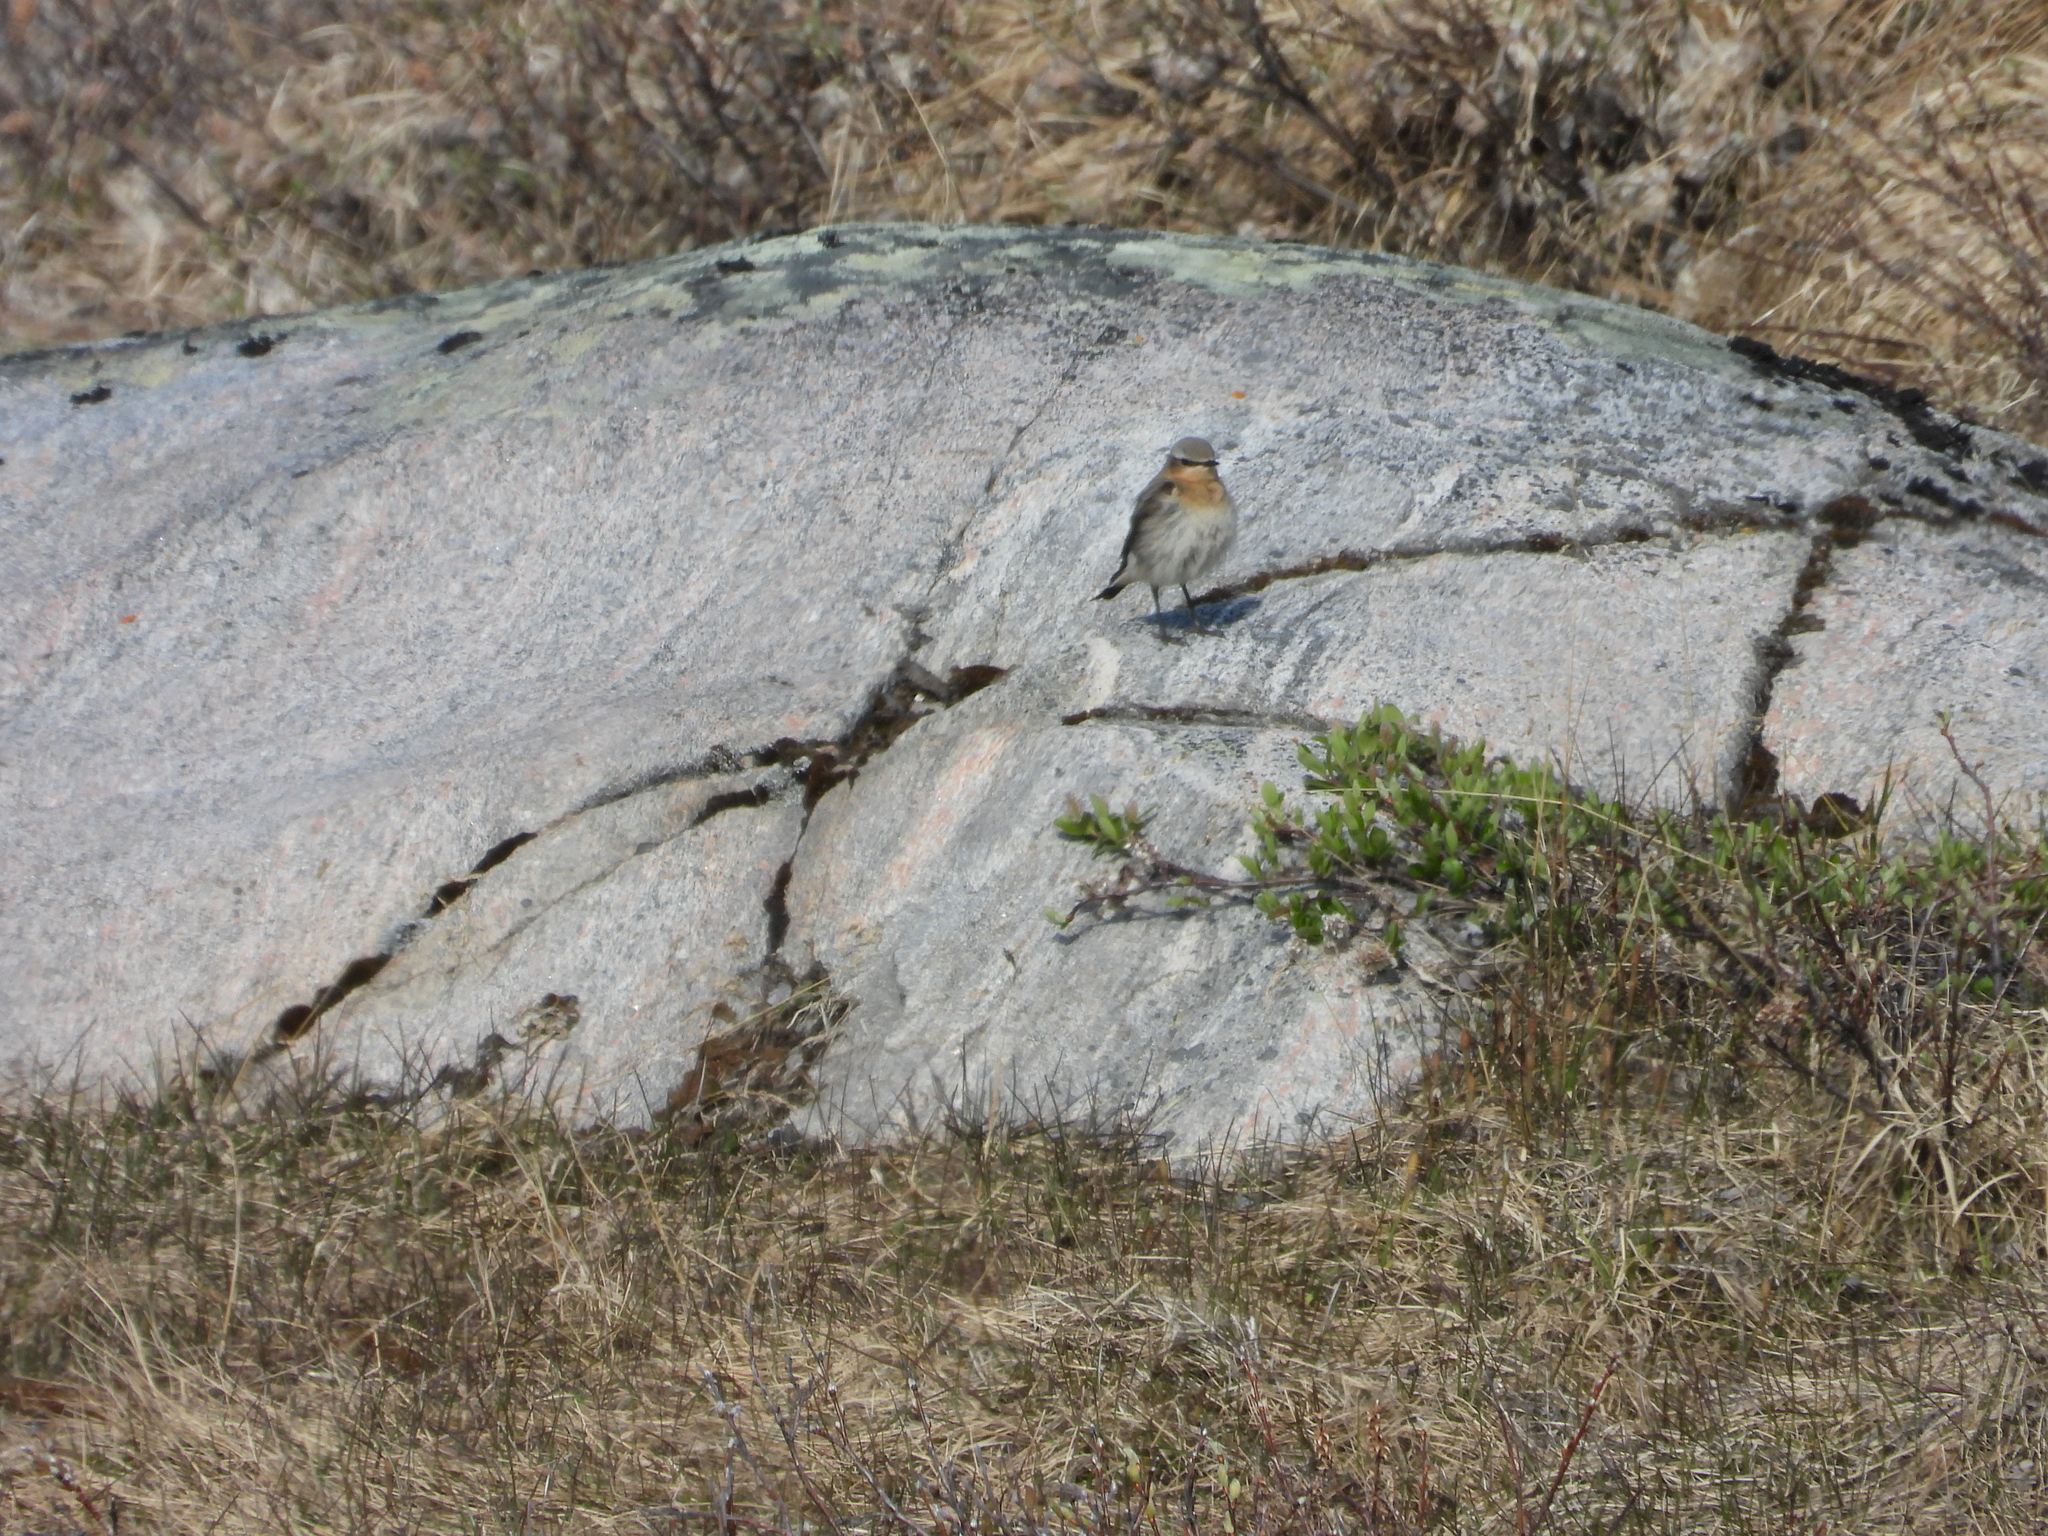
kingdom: Animalia
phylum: Chordata
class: Aves
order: Passeriformes
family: Muscicapidae
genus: Oenanthe
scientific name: Oenanthe oenanthe
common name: Northern wheatear
